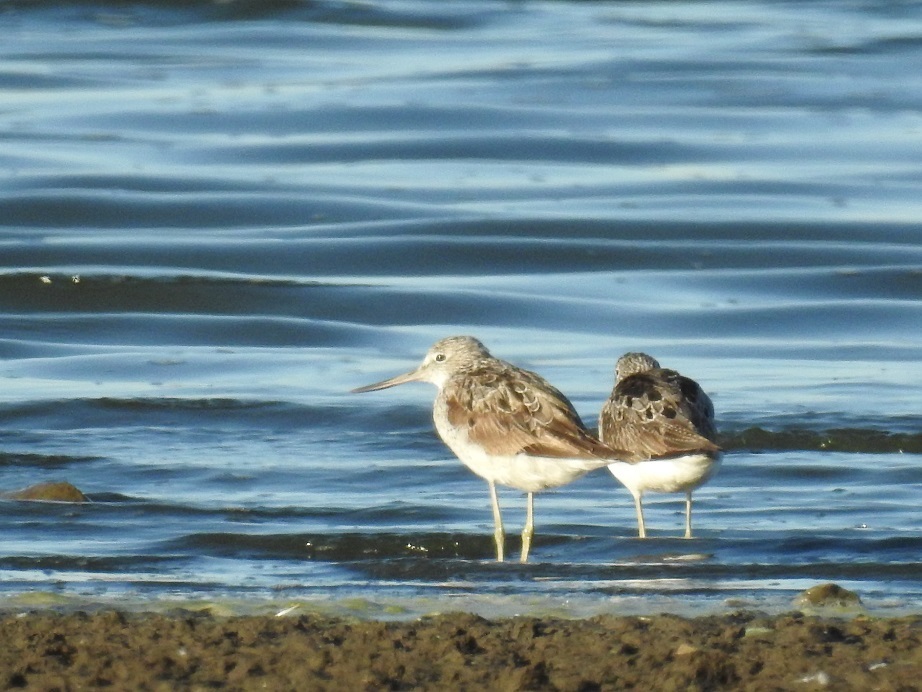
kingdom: Animalia
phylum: Chordata
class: Aves
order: Charadriiformes
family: Scolopacidae
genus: Tringa
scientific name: Tringa nebularia
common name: Common greenshank
